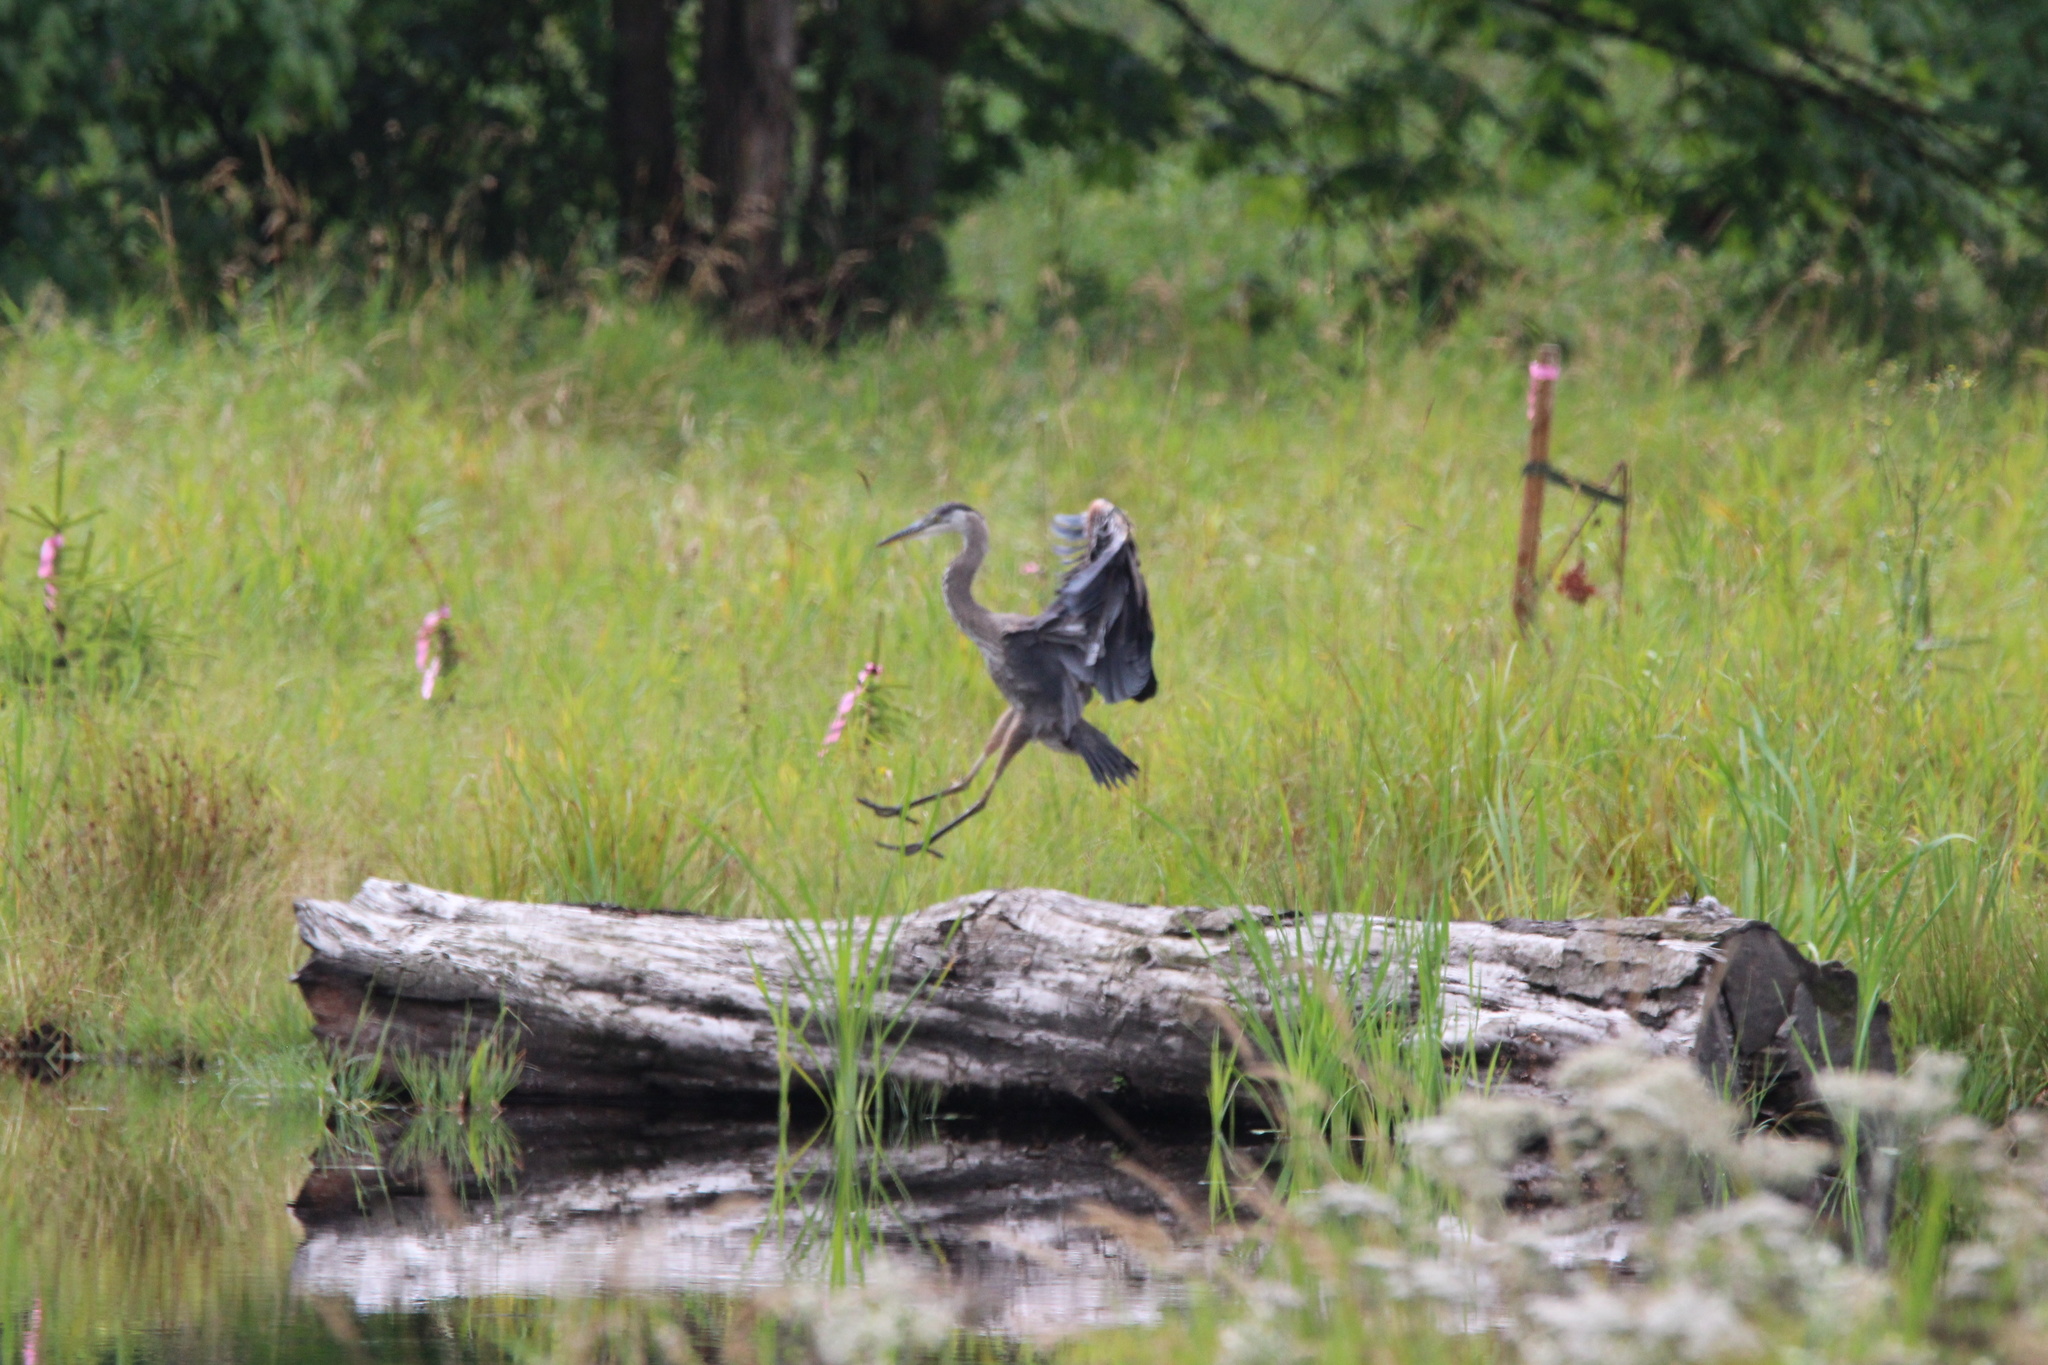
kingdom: Animalia
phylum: Chordata
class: Aves
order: Pelecaniformes
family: Ardeidae
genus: Ardea
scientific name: Ardea herodias
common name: Great blue heron
